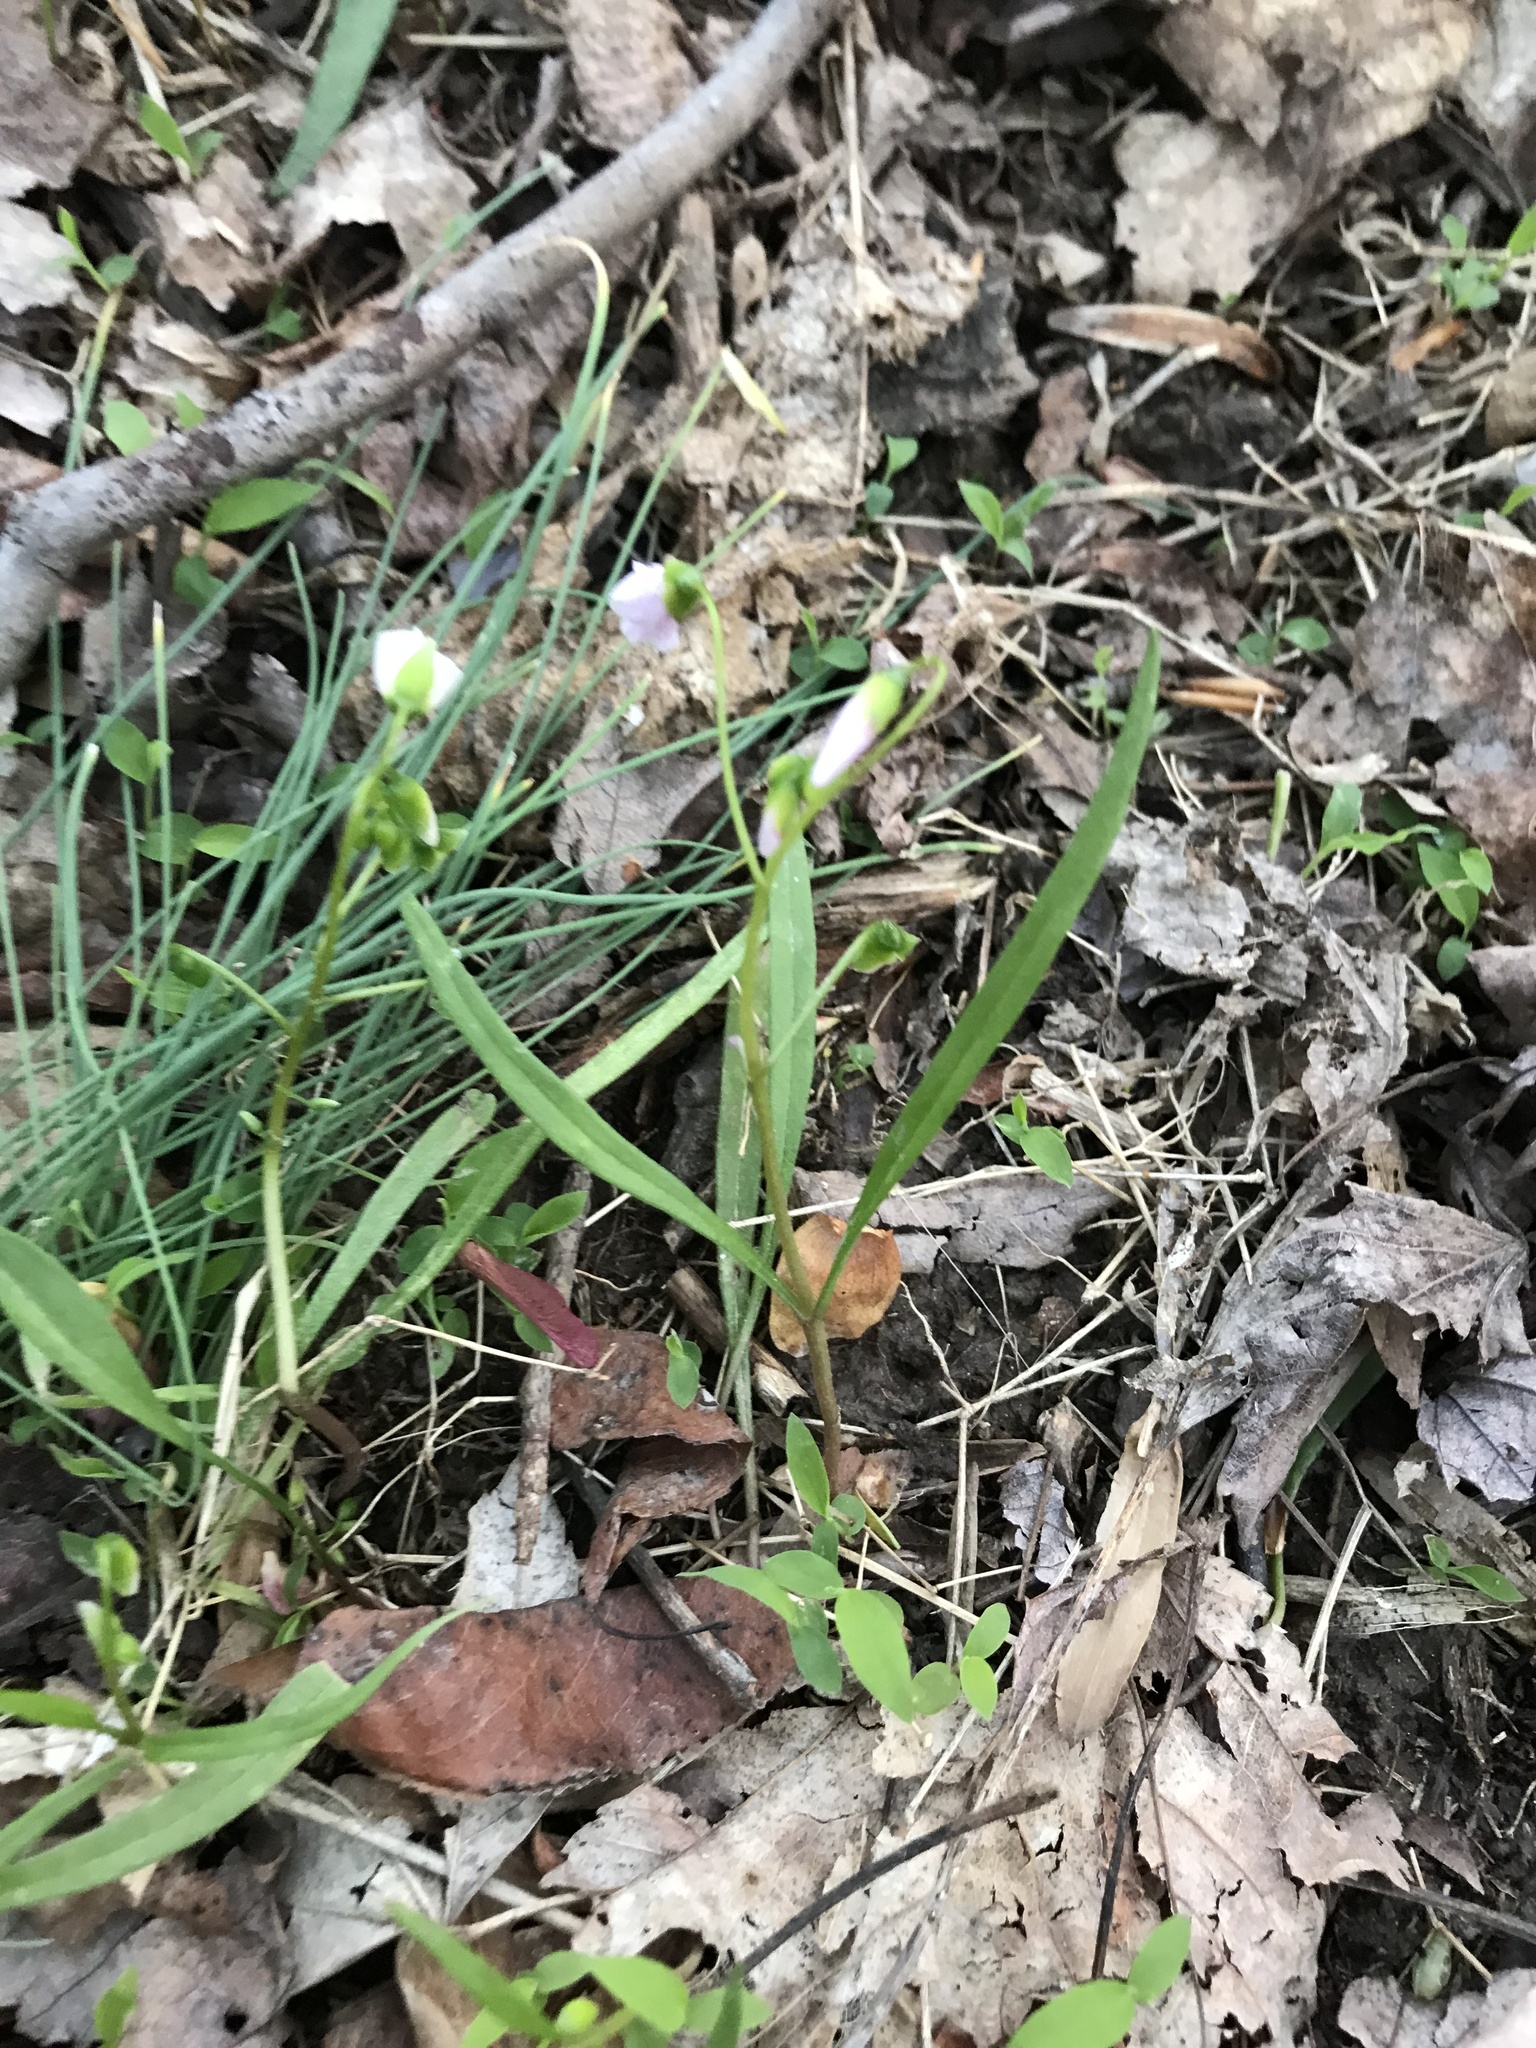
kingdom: Plantae
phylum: Tracheophyta
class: Magnoliopsida
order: Caryophyllales
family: Montiaceae
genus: Claytonia
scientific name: Claytonia virginica
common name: Virginia springbeauty
